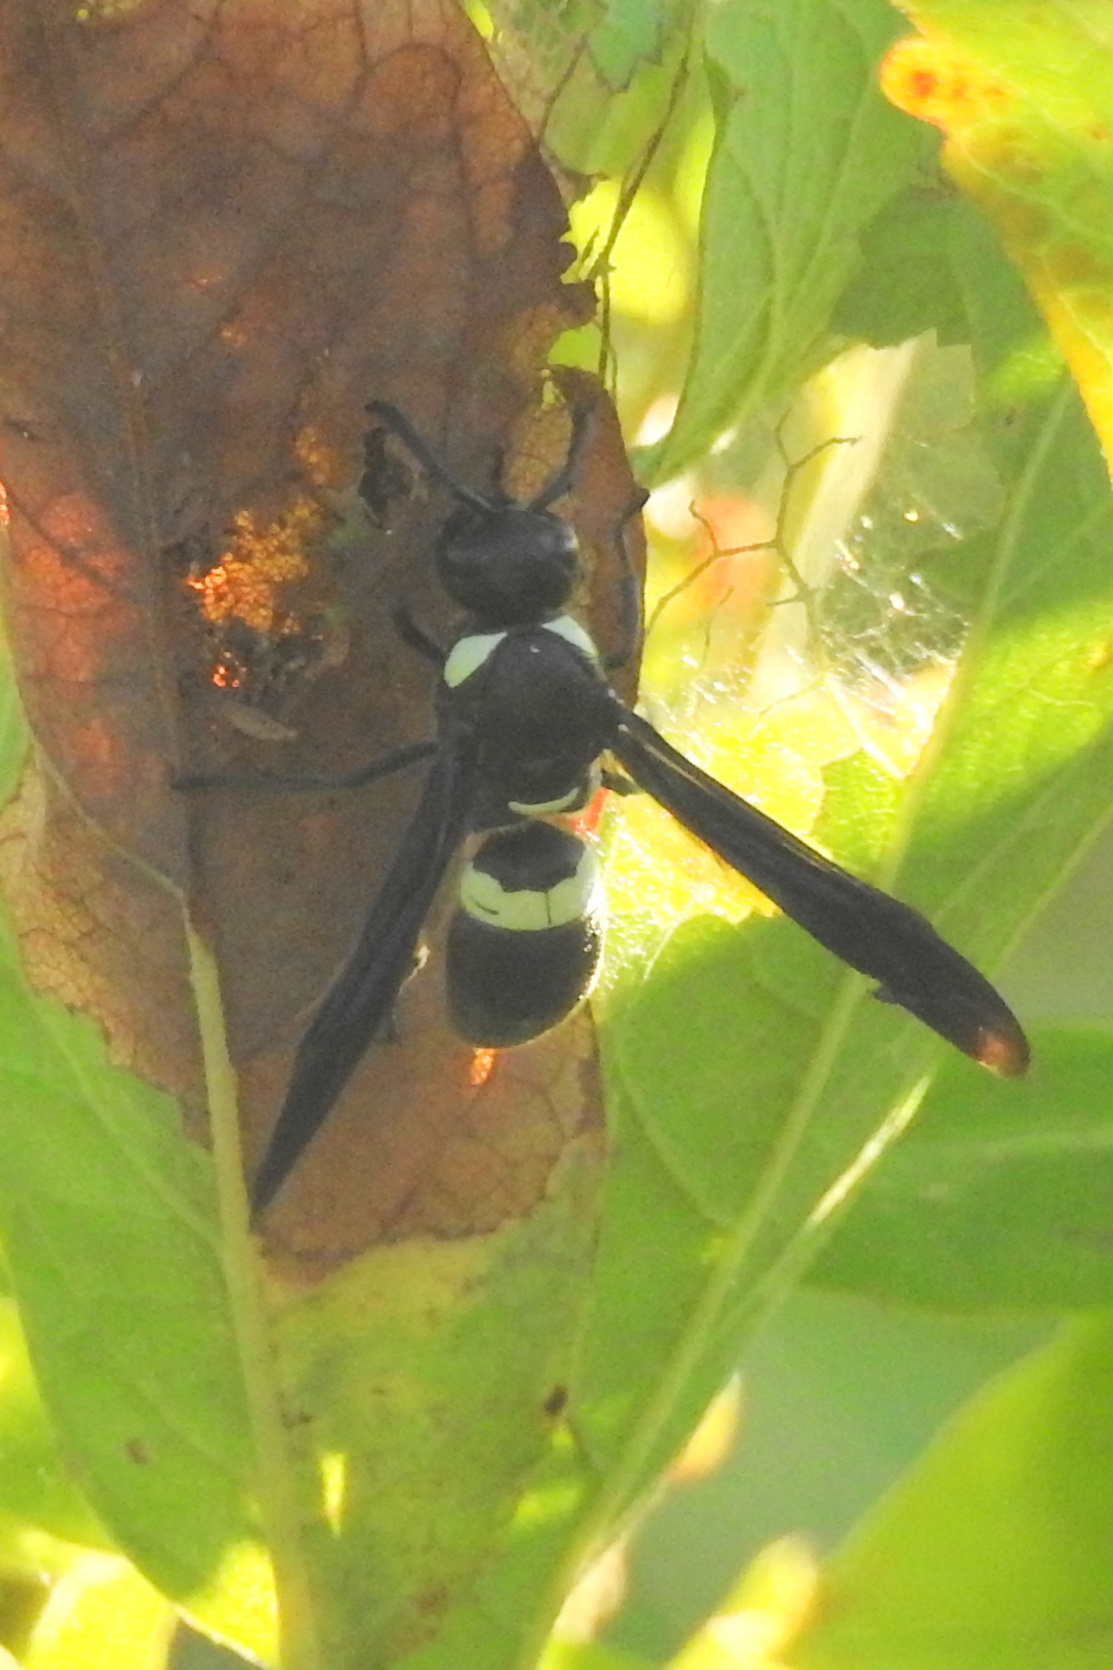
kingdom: Animalia
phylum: Arthropoda
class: Insecta
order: Hymenoptera
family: Eumenidae
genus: Monobia
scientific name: Monobia quadridens
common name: Four-toothed mason wasp
